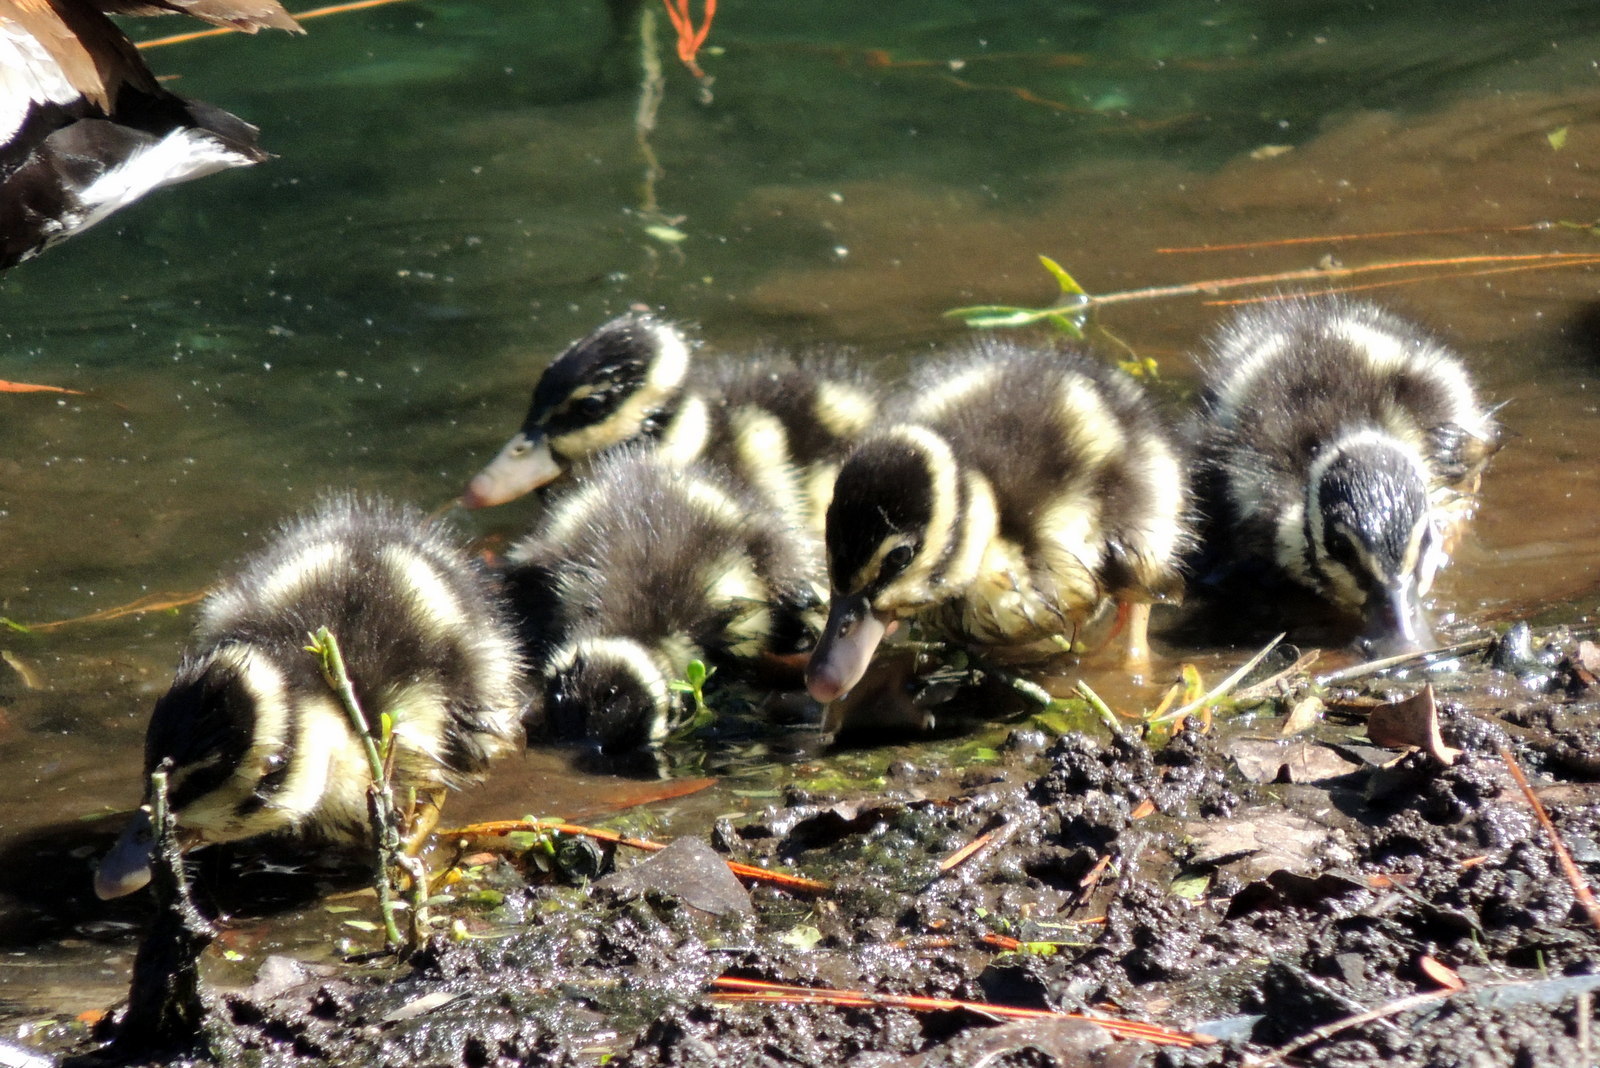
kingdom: Animalia
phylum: Chordata
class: Aves
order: Anseriformes
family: Anatidae
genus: Dendrocygna
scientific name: Dendrocygna autumnalis
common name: Black-bellied whistling duck
